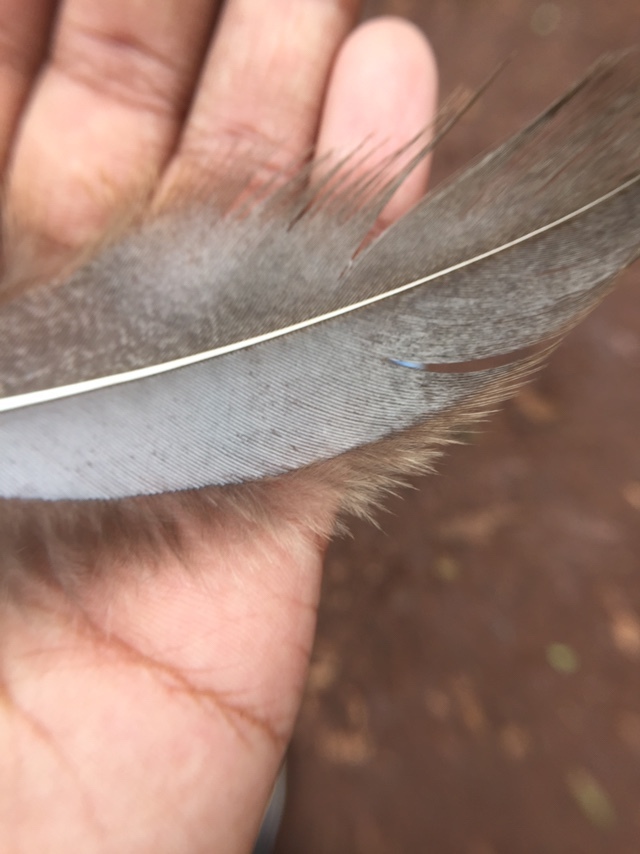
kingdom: Animalia
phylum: Chordata
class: Aves
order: Galliformes
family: Phasianidae
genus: Pavo
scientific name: Pavo cristatus
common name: Indian peafowl
